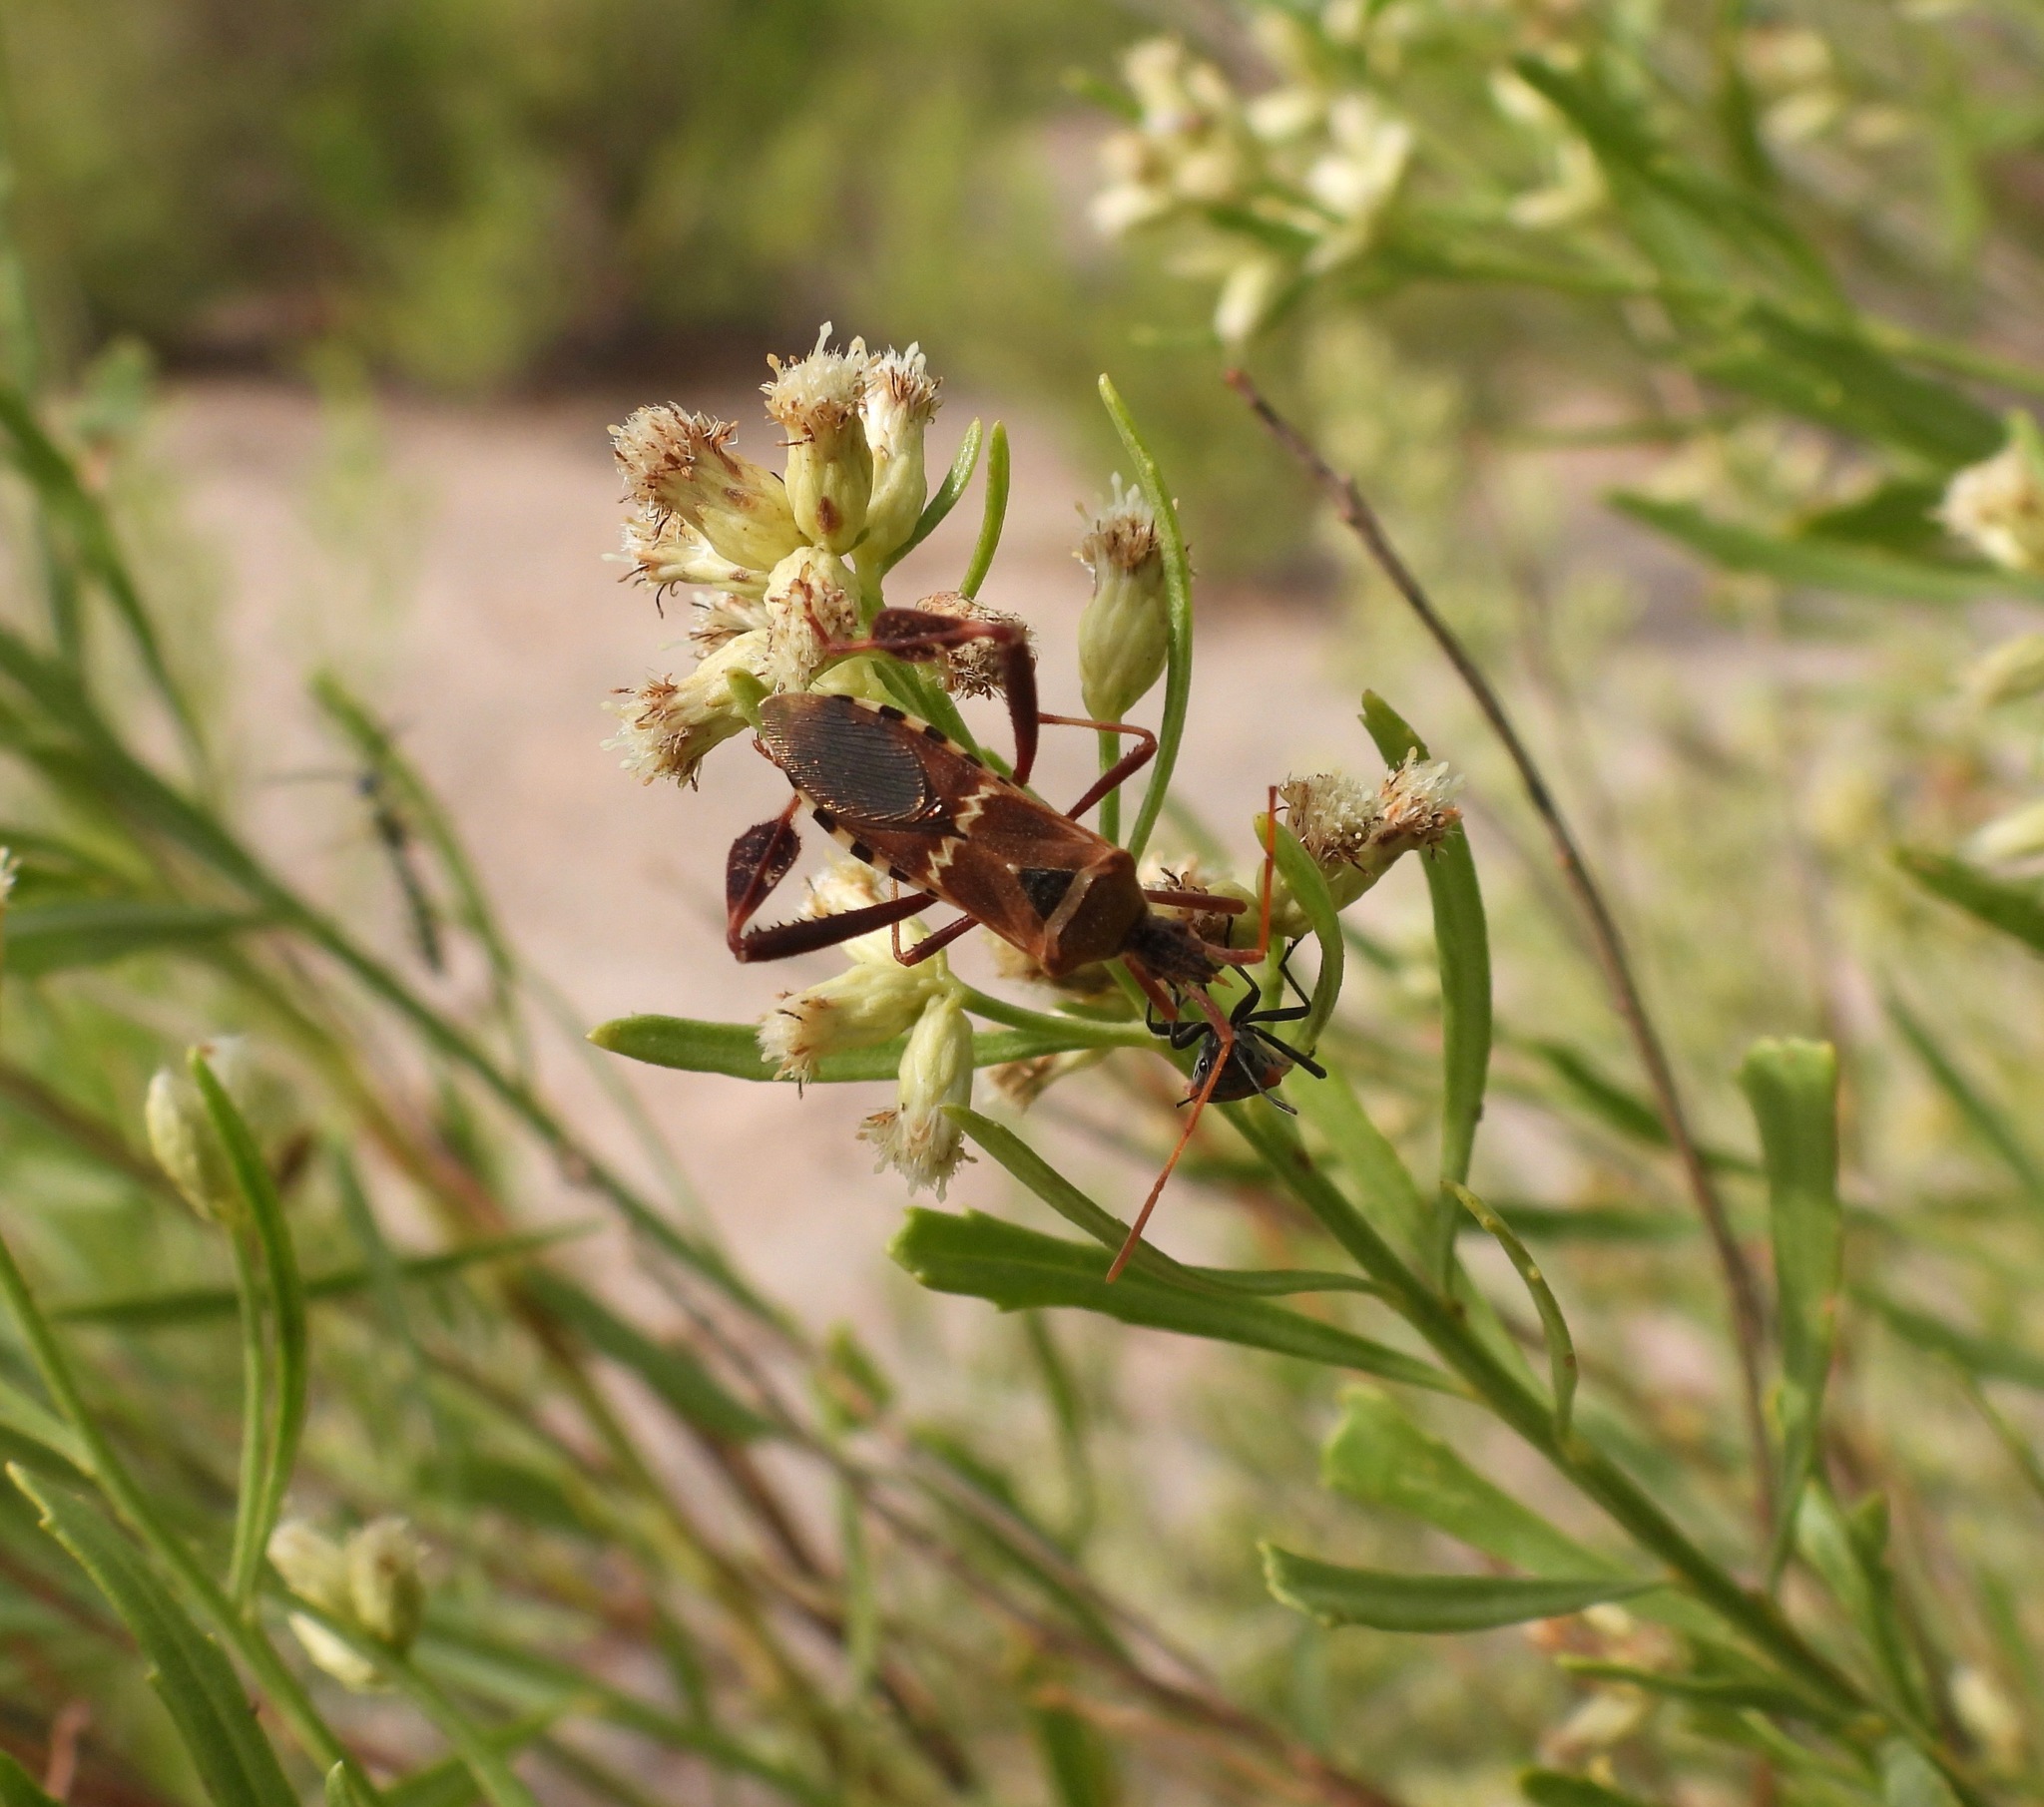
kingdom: Animalia
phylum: Arthropoda
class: Insecta
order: Hemiptera
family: Coreidae
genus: Leptoglossus
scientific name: Leptoglossus clypealis
